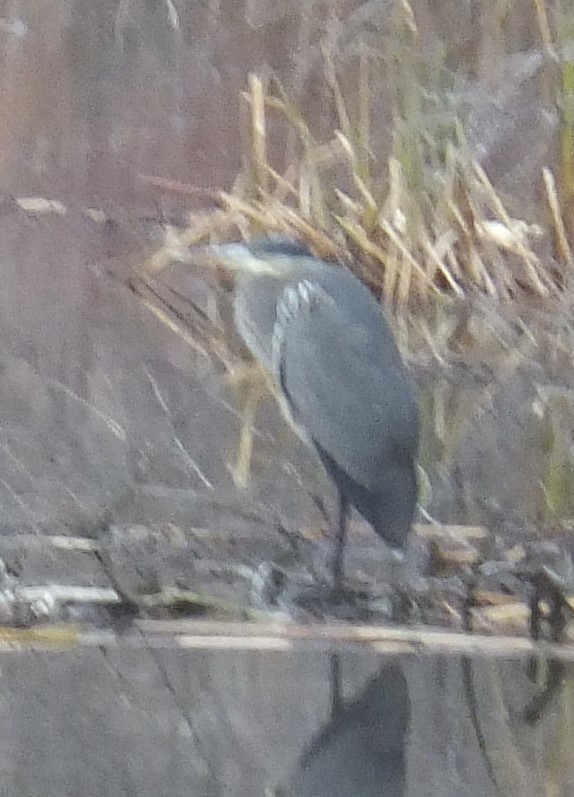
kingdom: Animalia
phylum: Chordata
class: Aves
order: Pelecaniformes
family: Ardeidae
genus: Ardea
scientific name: Ardea herodias
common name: Great blue heron
